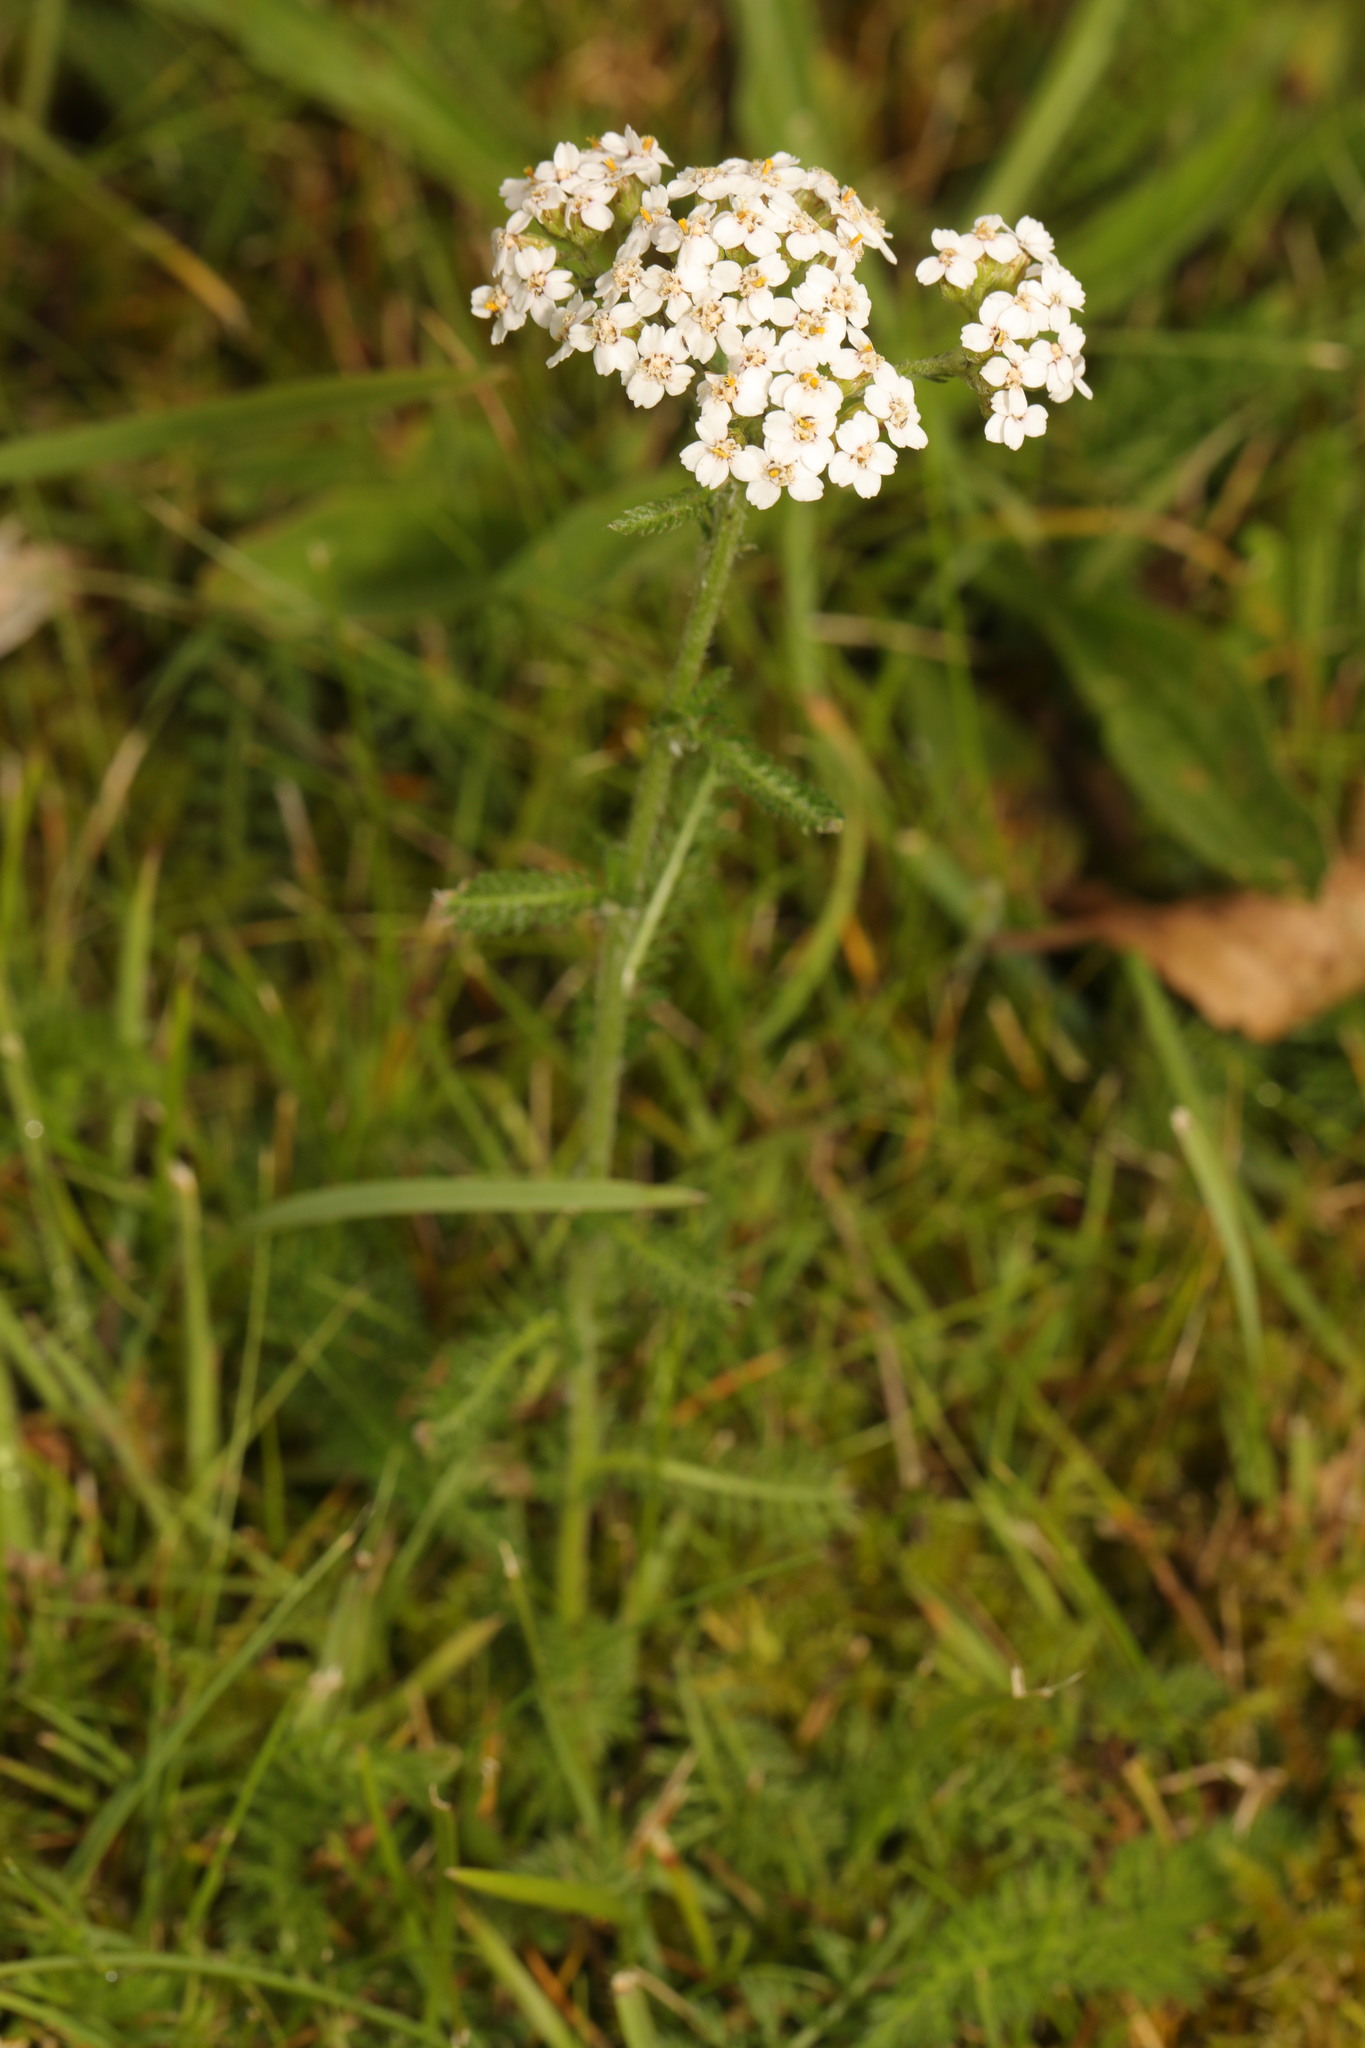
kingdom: Plantae
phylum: Tracheophyta
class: Magnoliopsida
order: Asterales
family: Asteraceae
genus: Achillea
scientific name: Achillea millefolium
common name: Yarrow
